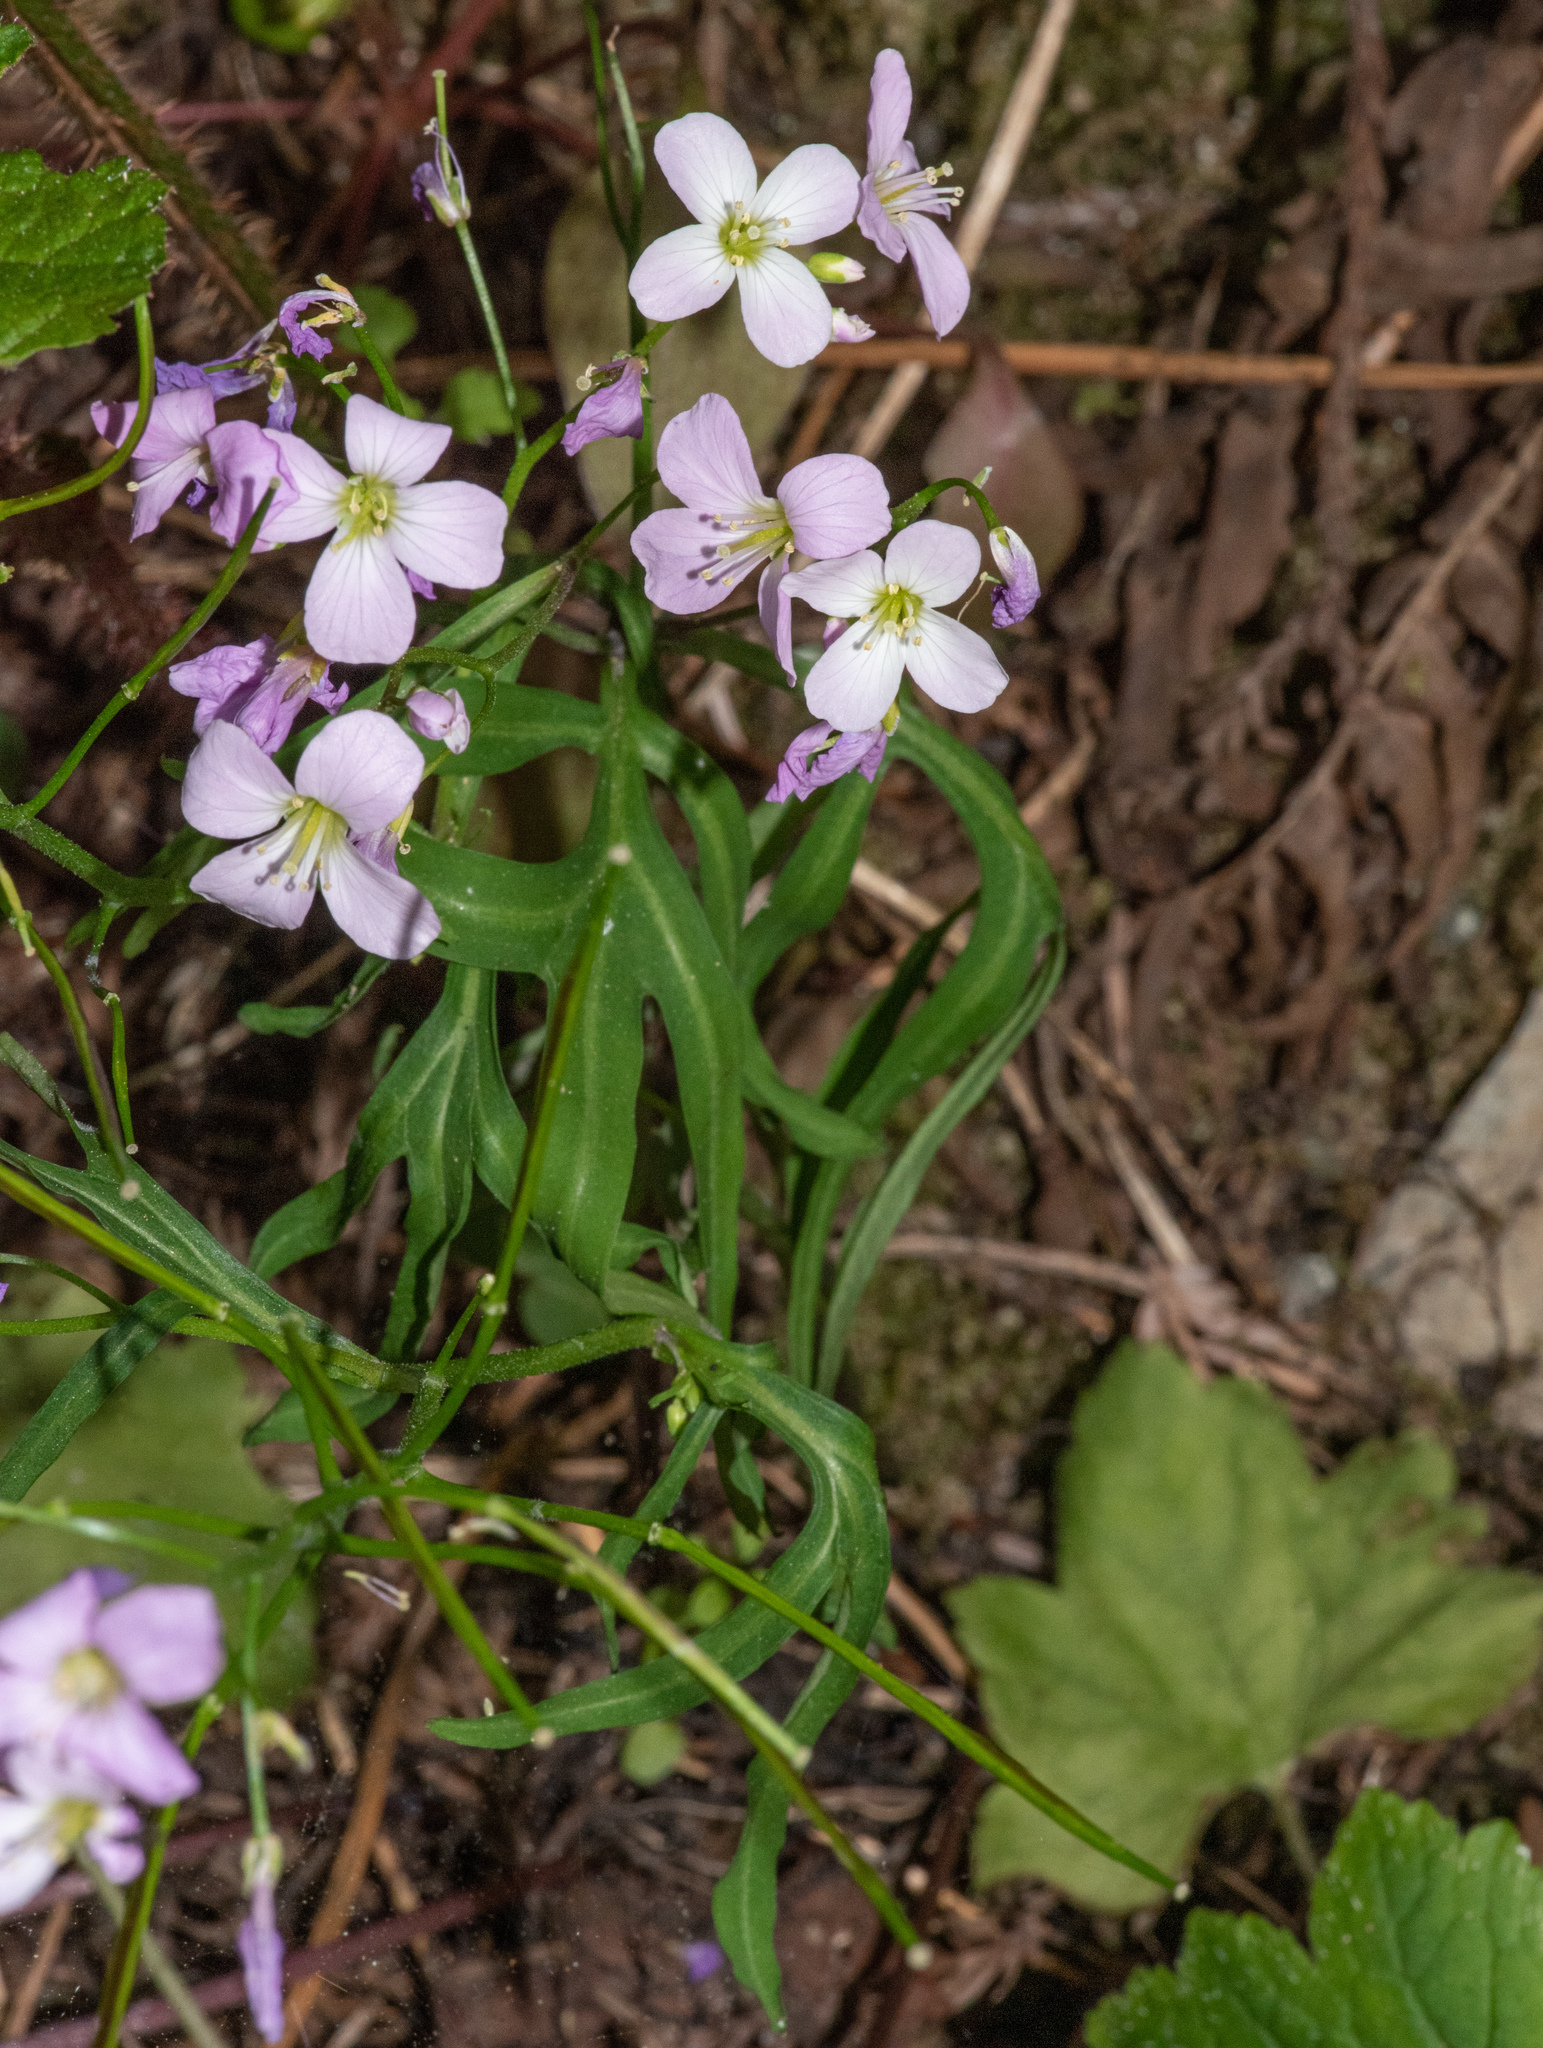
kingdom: Plantae
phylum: Tracheophyta
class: Magnoliopsida
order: Brassicales
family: Brassicaceae
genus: Cardamine
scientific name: Cardamine nuttallii
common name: Nuttall's toothwort
